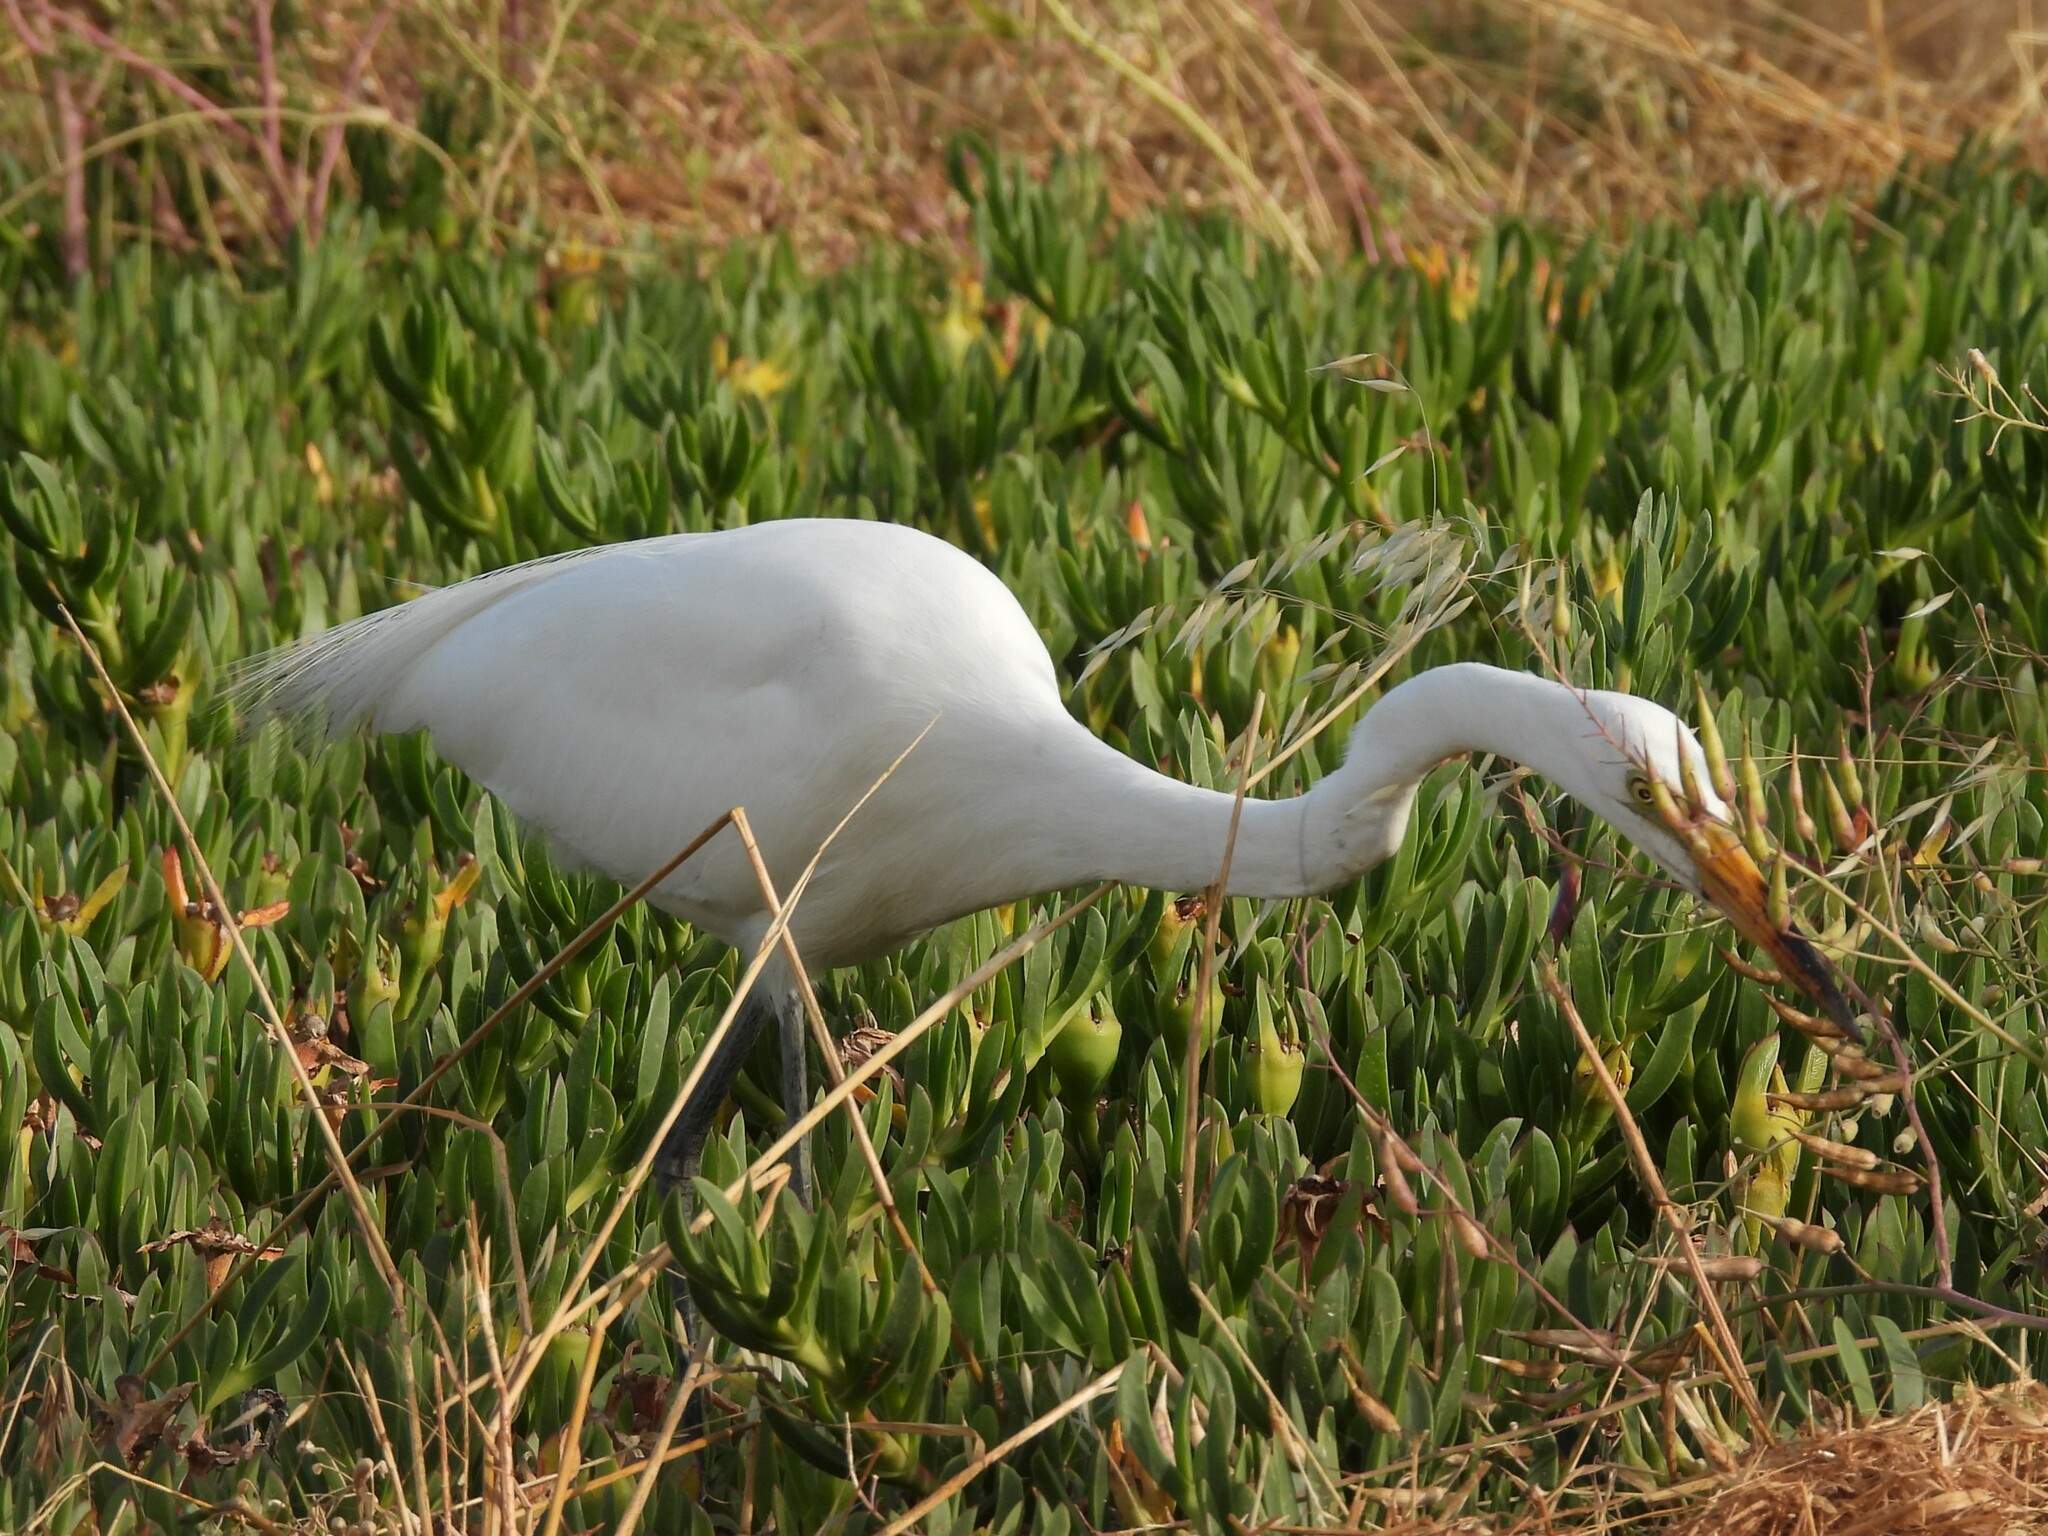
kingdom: Animalia
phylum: Chordata
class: Aves
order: Pelecaniformes
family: Ardeidae
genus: Ardea
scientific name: Ardea alba
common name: Great egret
